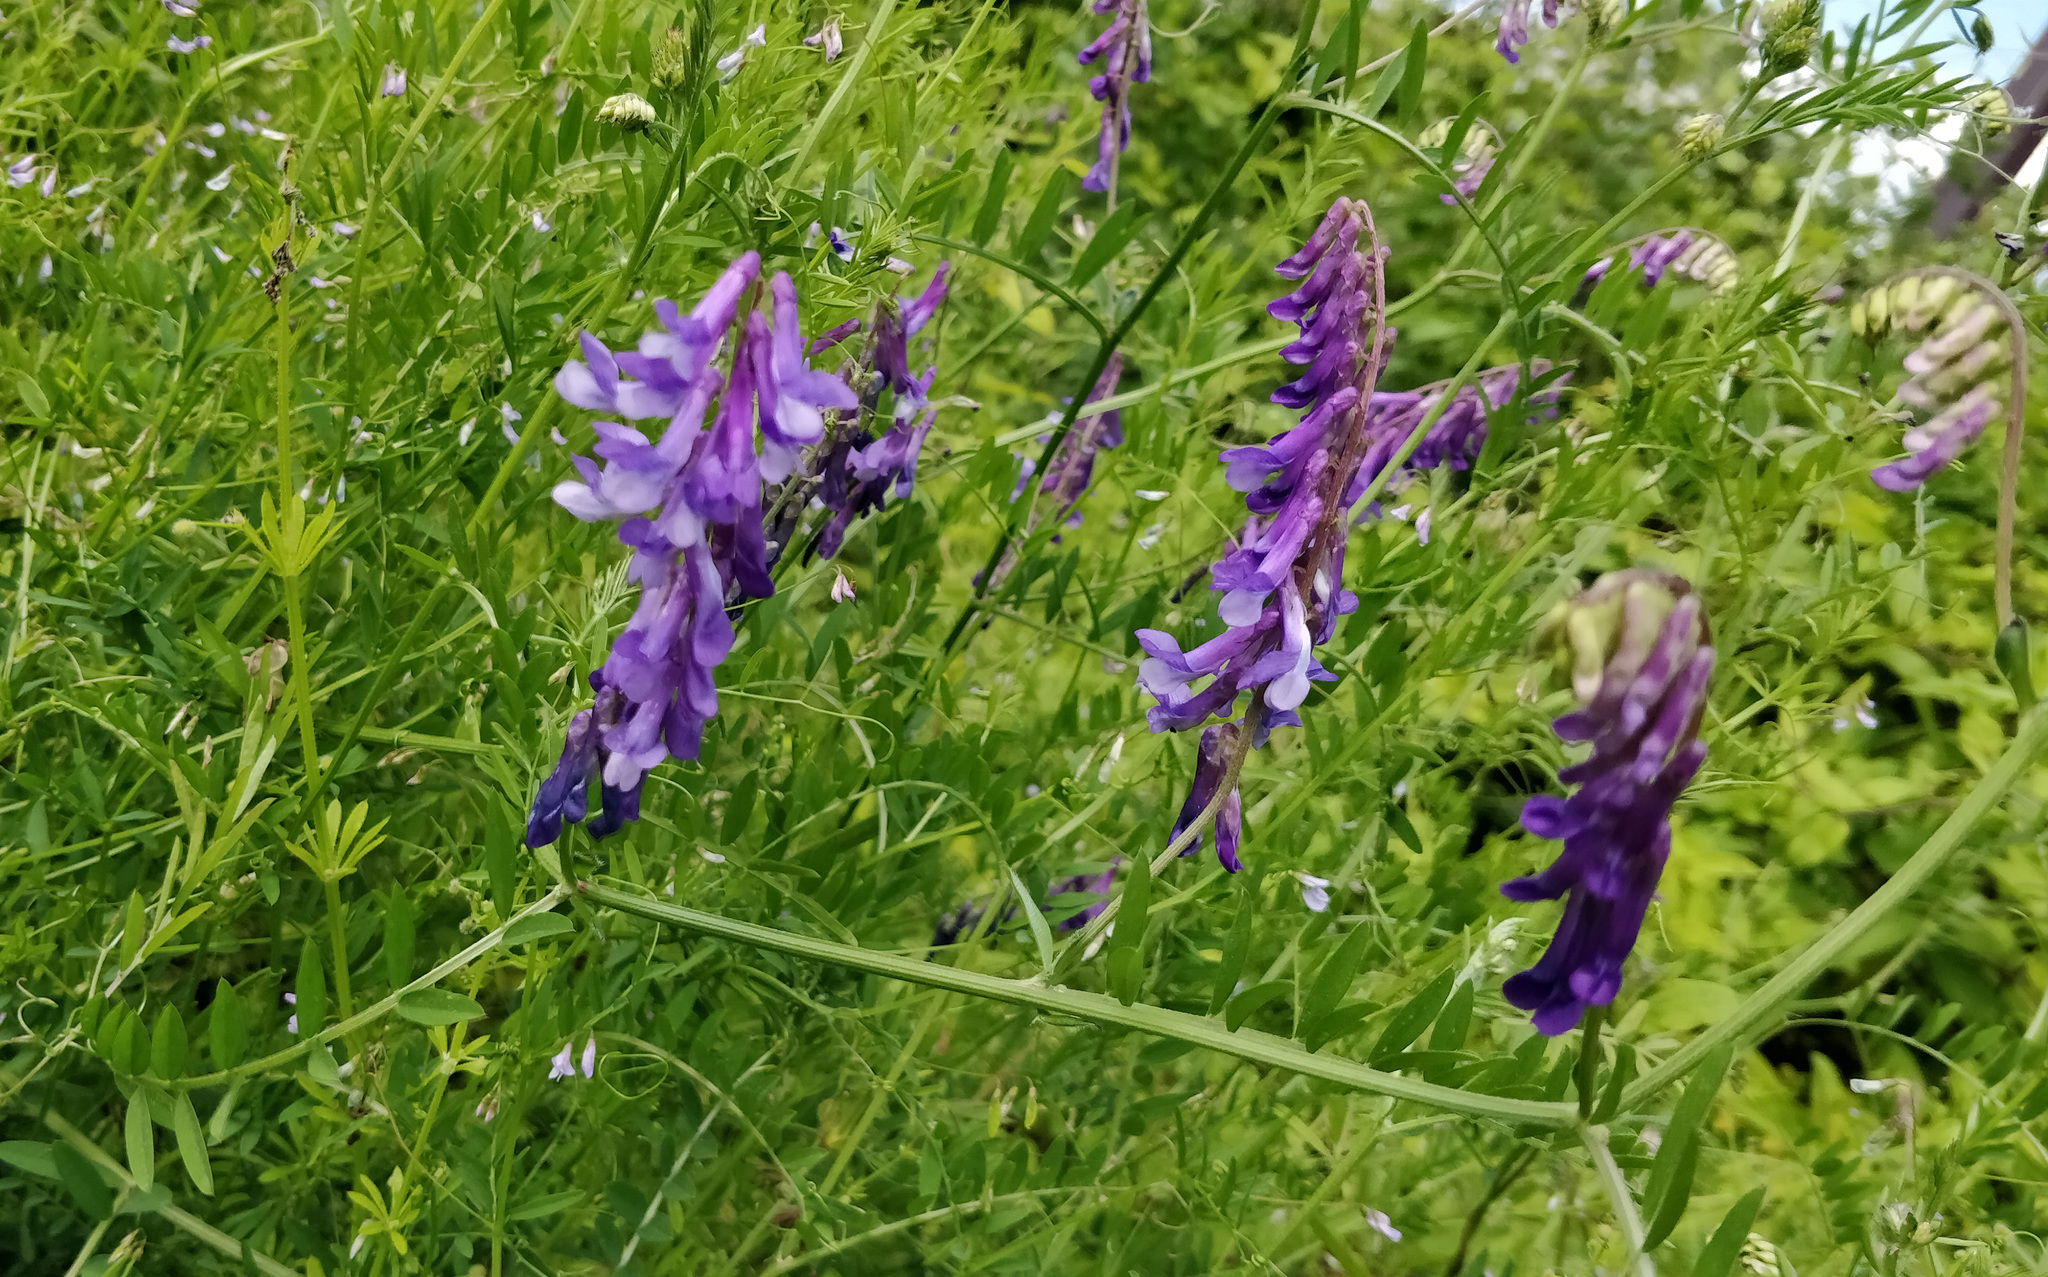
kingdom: Plantae
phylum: Tracheophyta
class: Magnoliopsida
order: Fabales
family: Fabaceae
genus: Vicia
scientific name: Vicia villosa
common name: Fodder vetch
